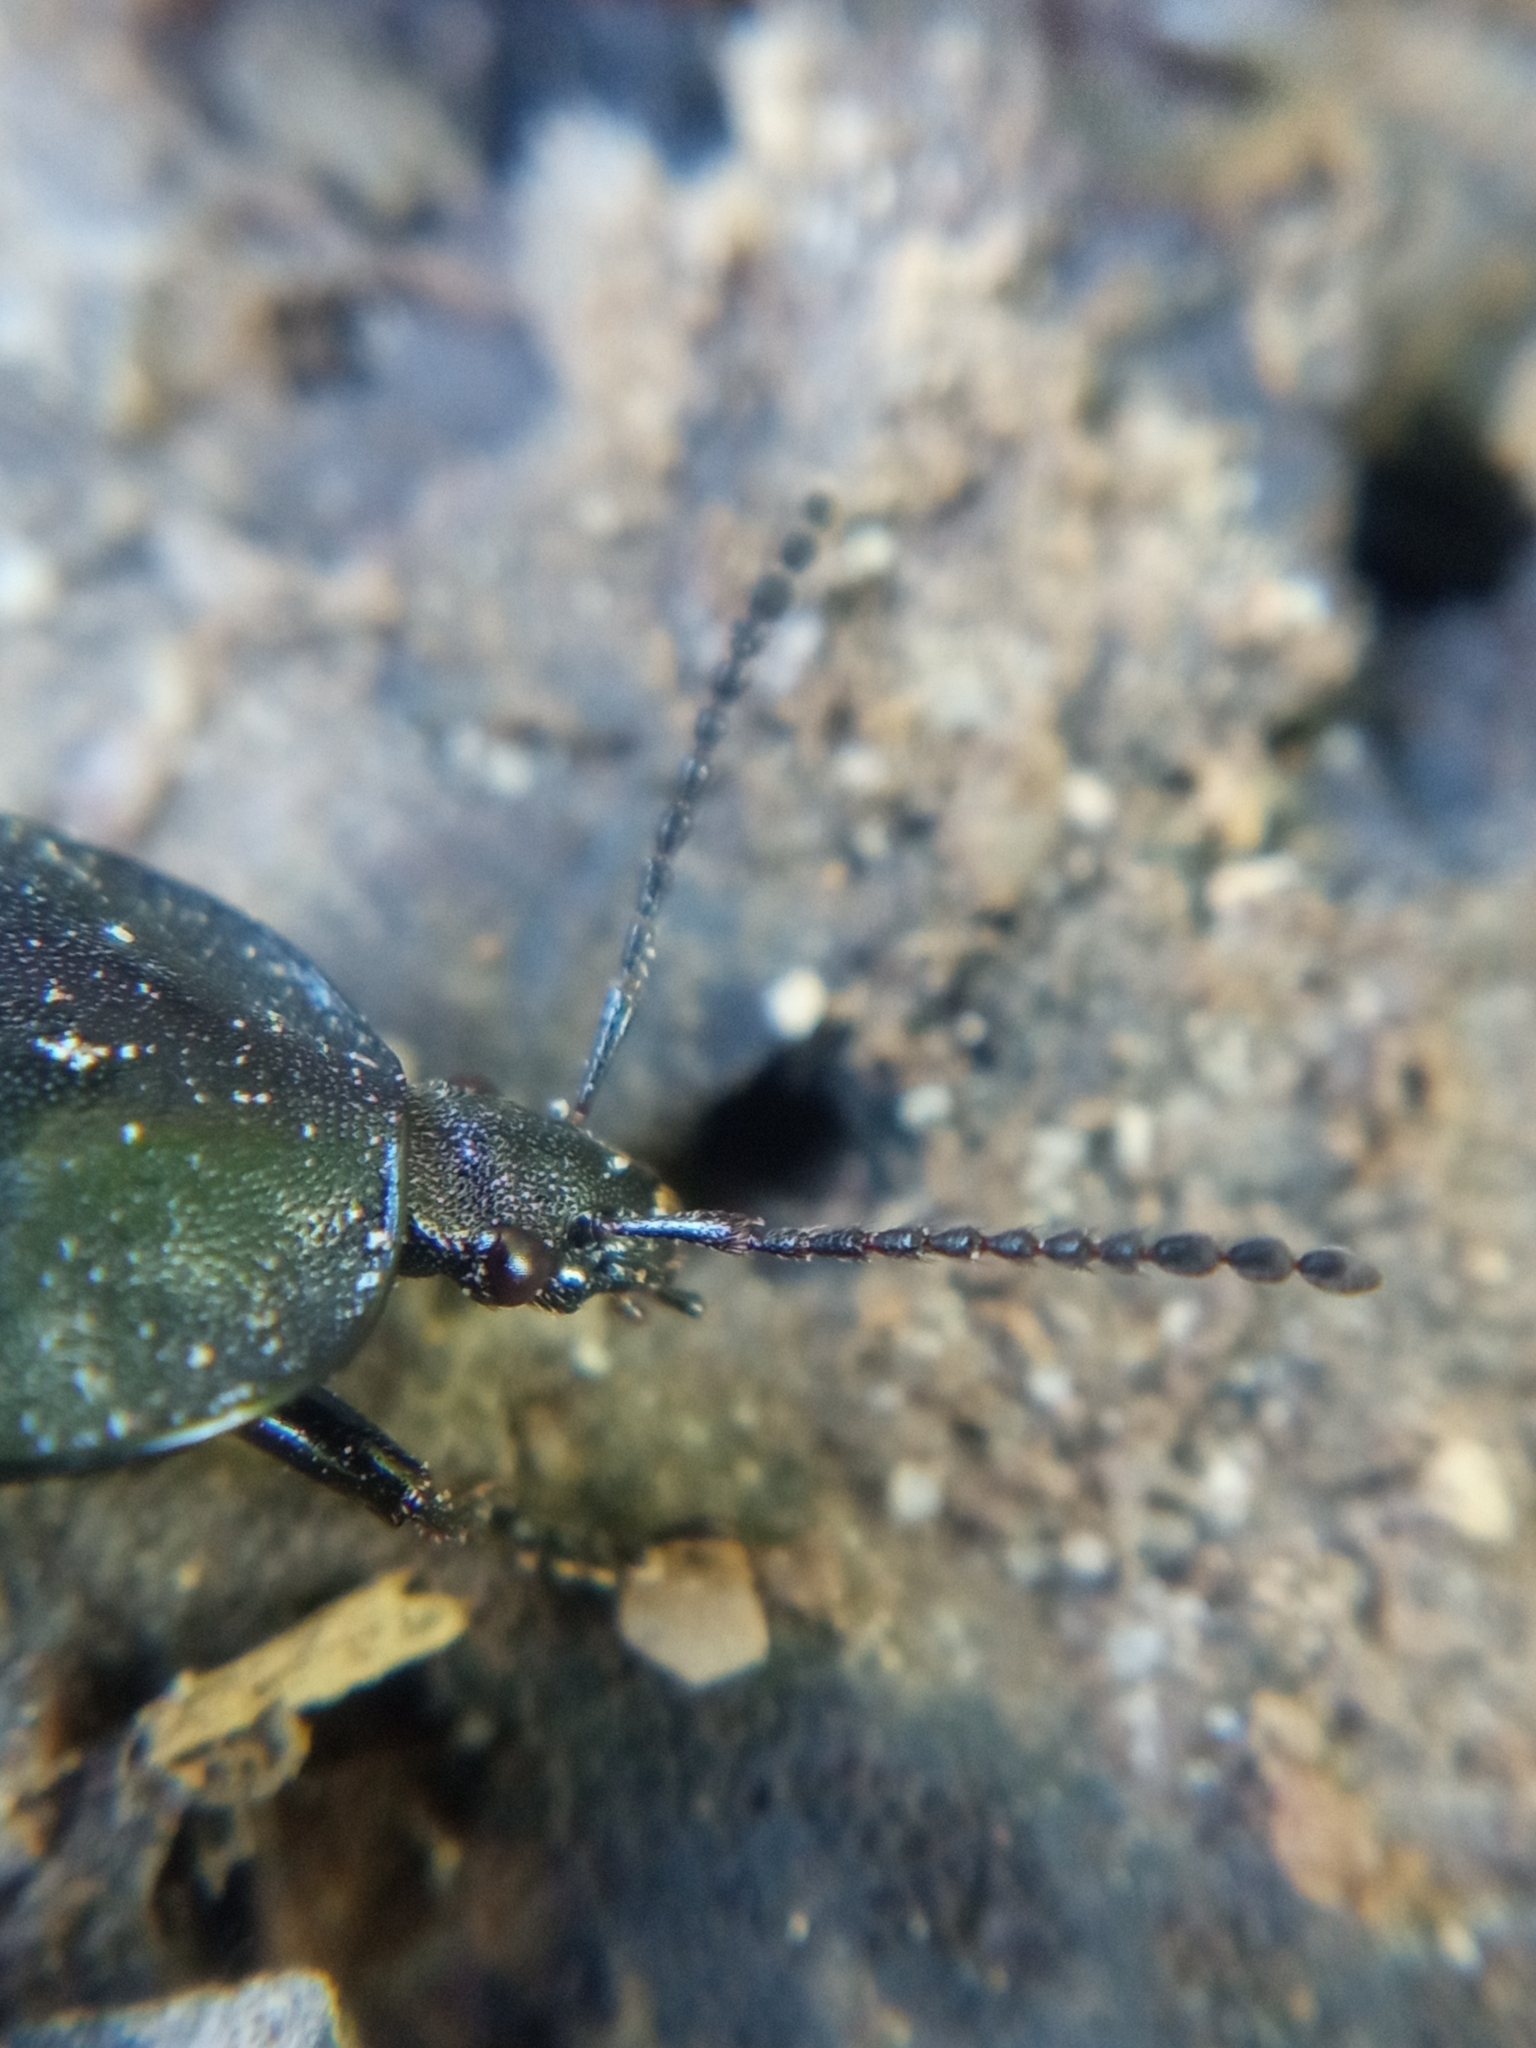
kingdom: Animalia
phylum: Arthropoda
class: Insecta
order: Coleoptera
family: Staphylinidae
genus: Silpha
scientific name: Silpha atrata
